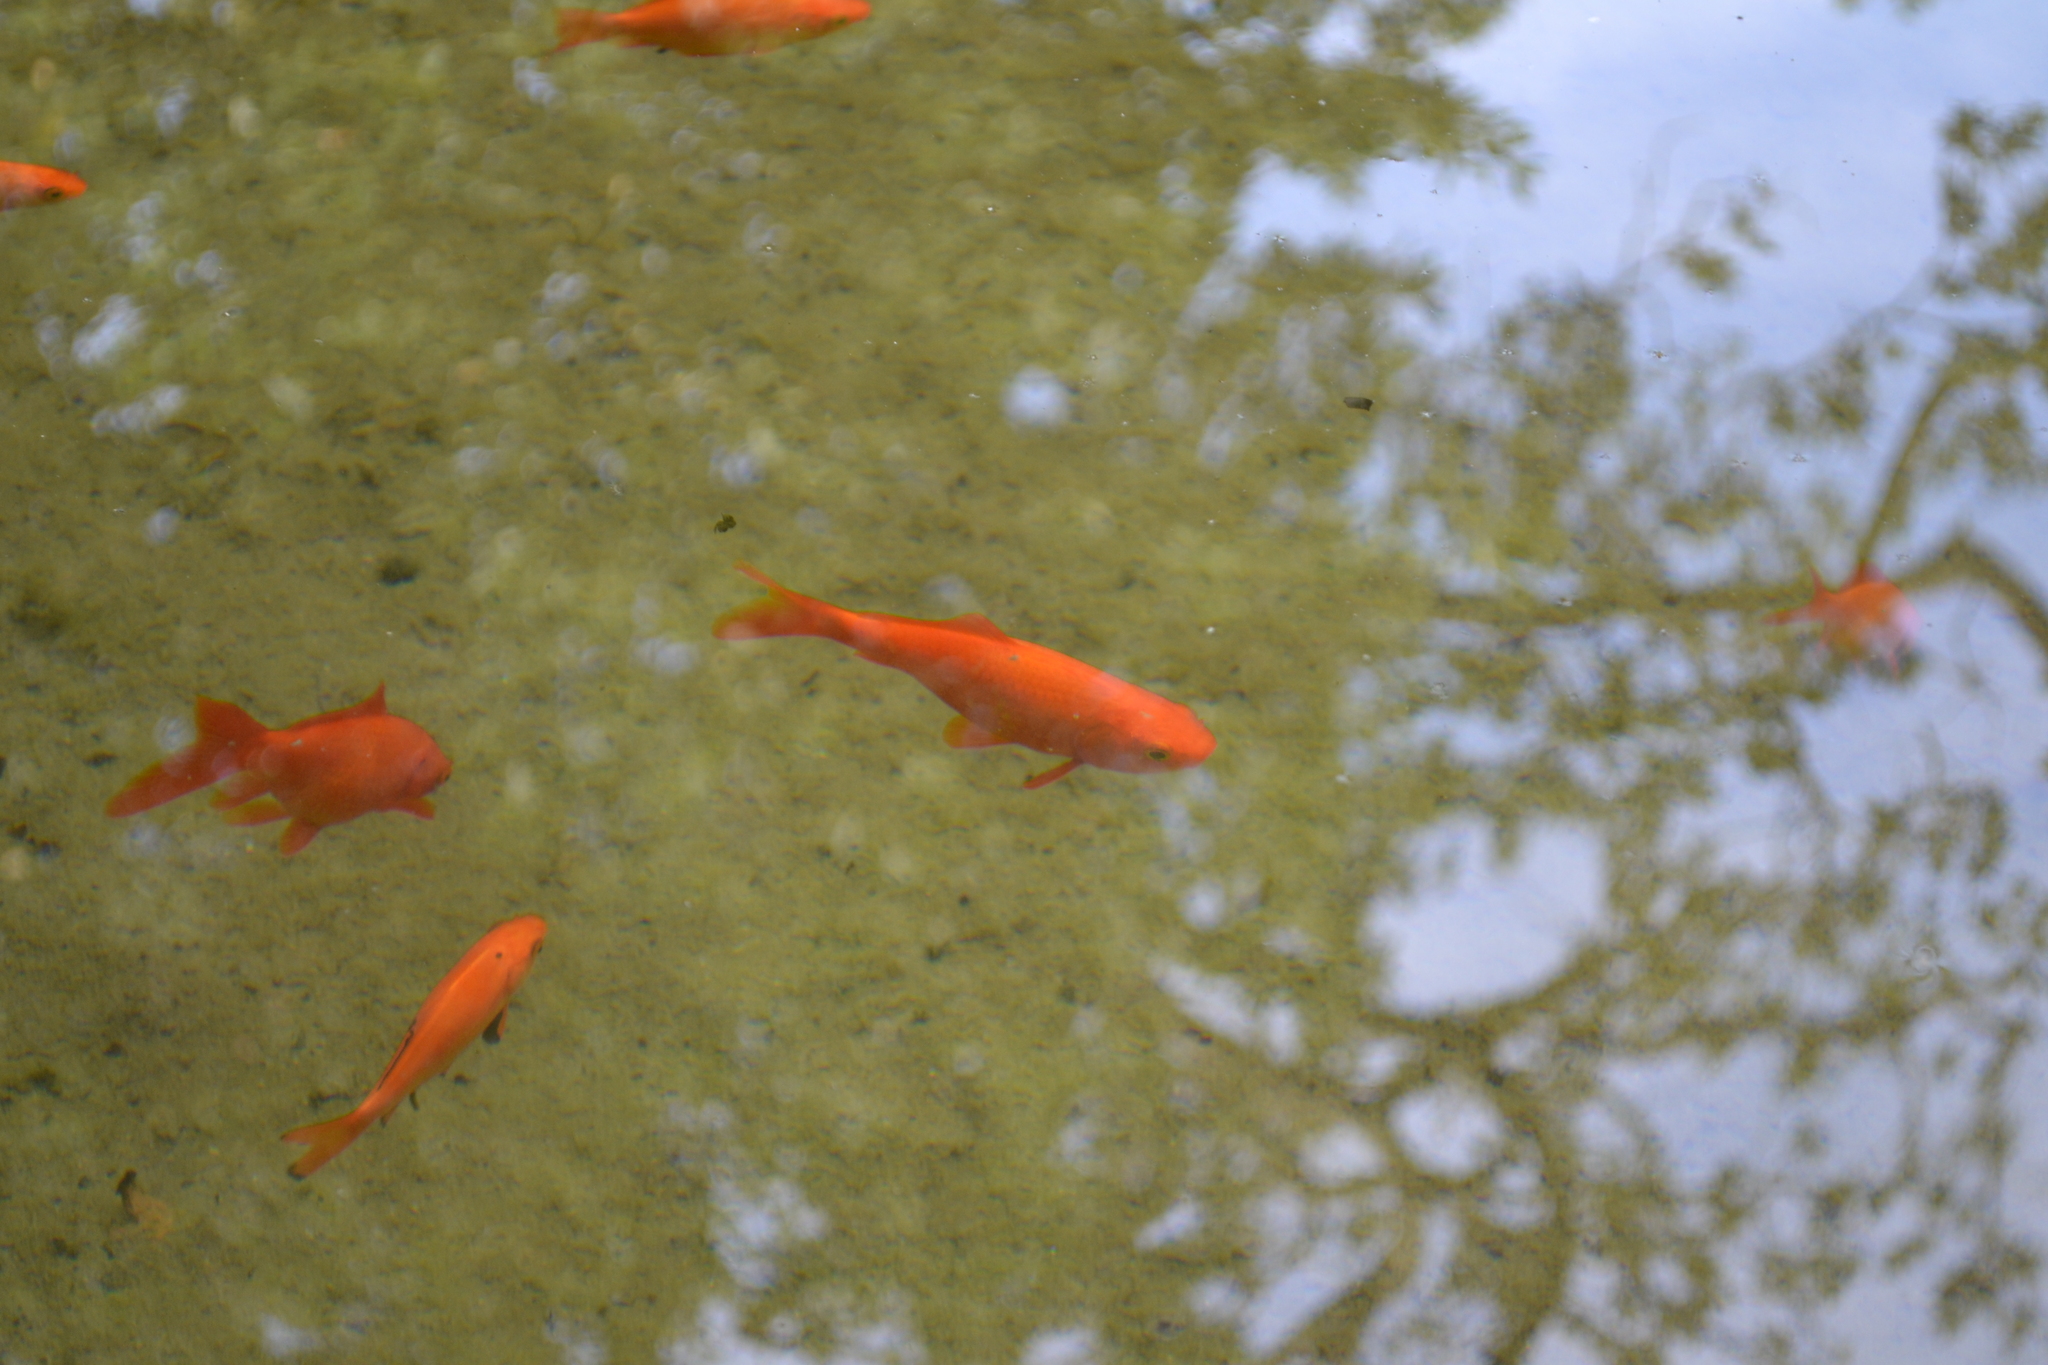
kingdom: Animalia
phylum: Chordata
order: Cypriniformes
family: Cyprinidae
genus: Carassius
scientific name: Carassius auratus
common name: Goldfish
